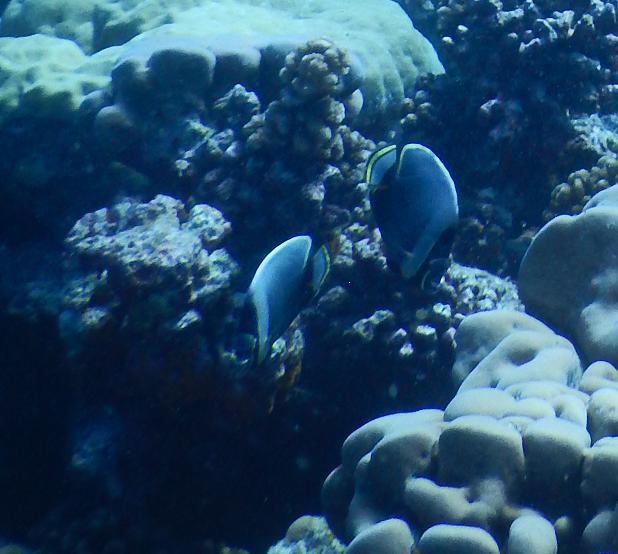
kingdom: Animalia
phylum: Chordata
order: Perciformes
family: Chaetodontidae
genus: Chaetodon
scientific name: Chaetodon reticulatus
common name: Reticulated butterflyfish
